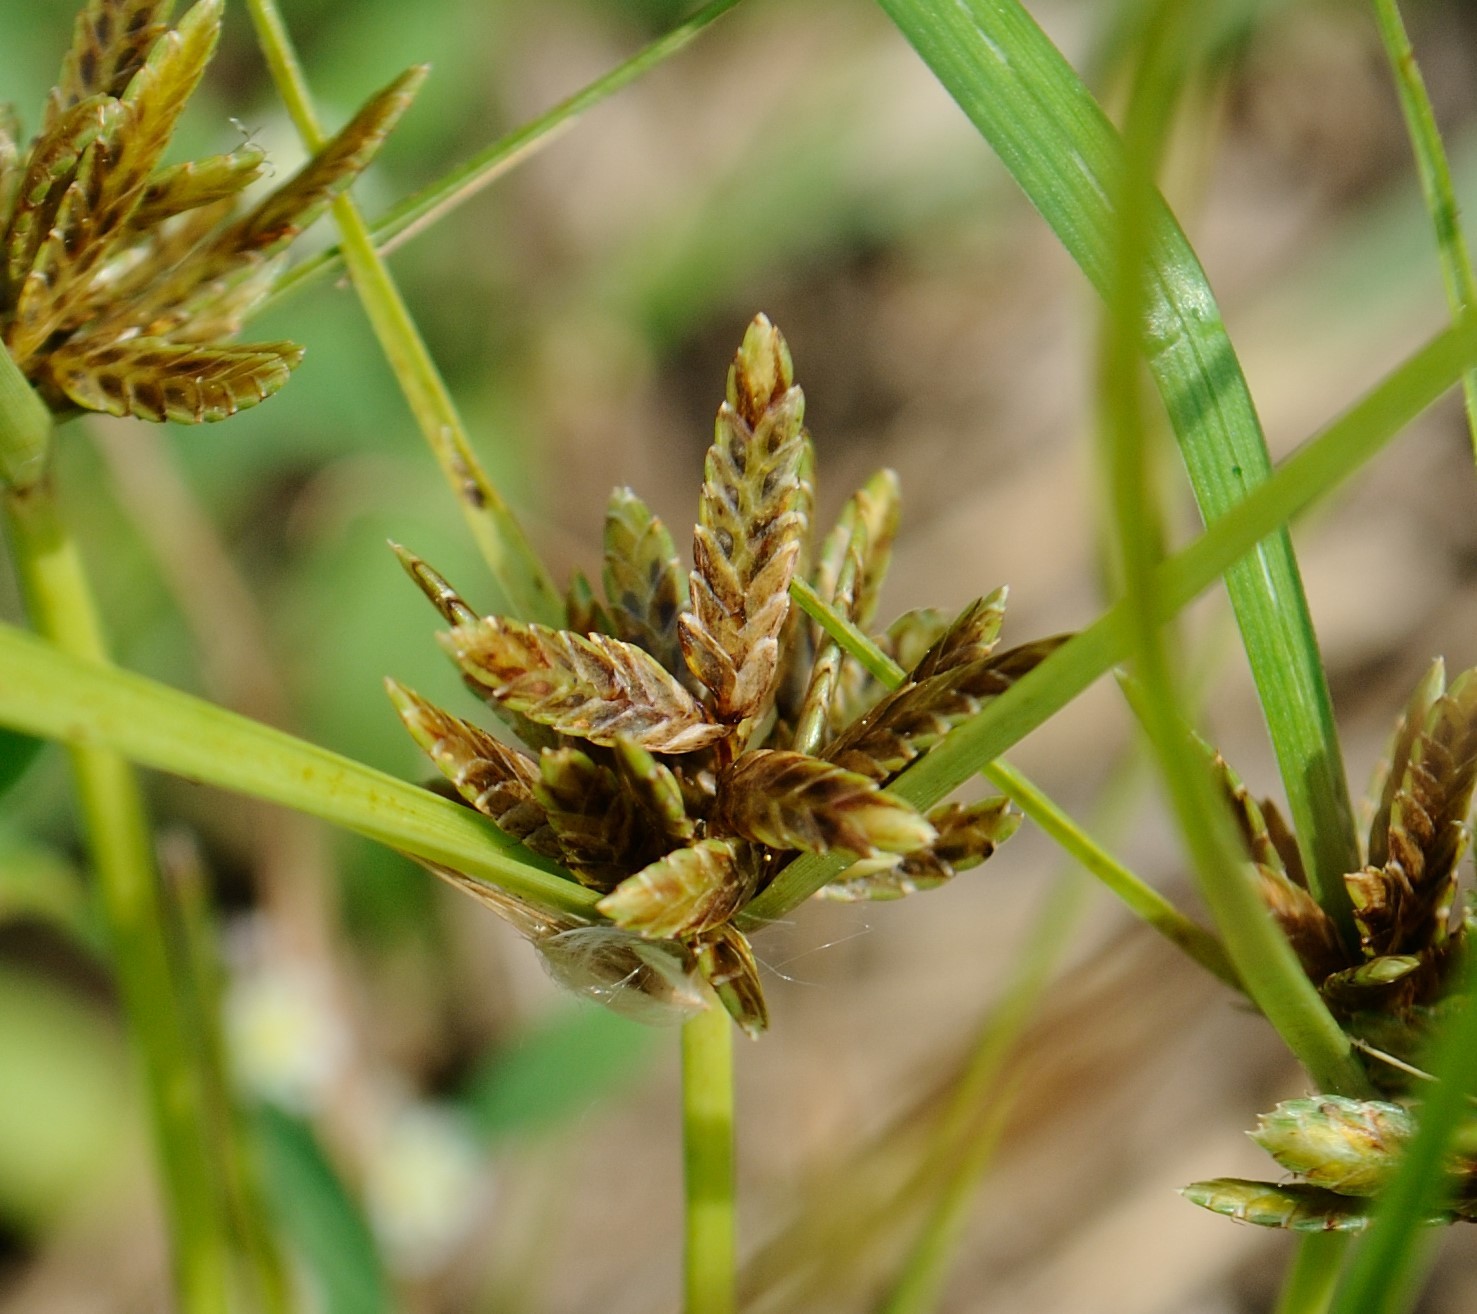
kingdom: Plantae
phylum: Tracheophyta
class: Liliopsida
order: Poales
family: Cyperaceae
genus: Cyperus
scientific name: Cyperus flavescens
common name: Yellow galingale
